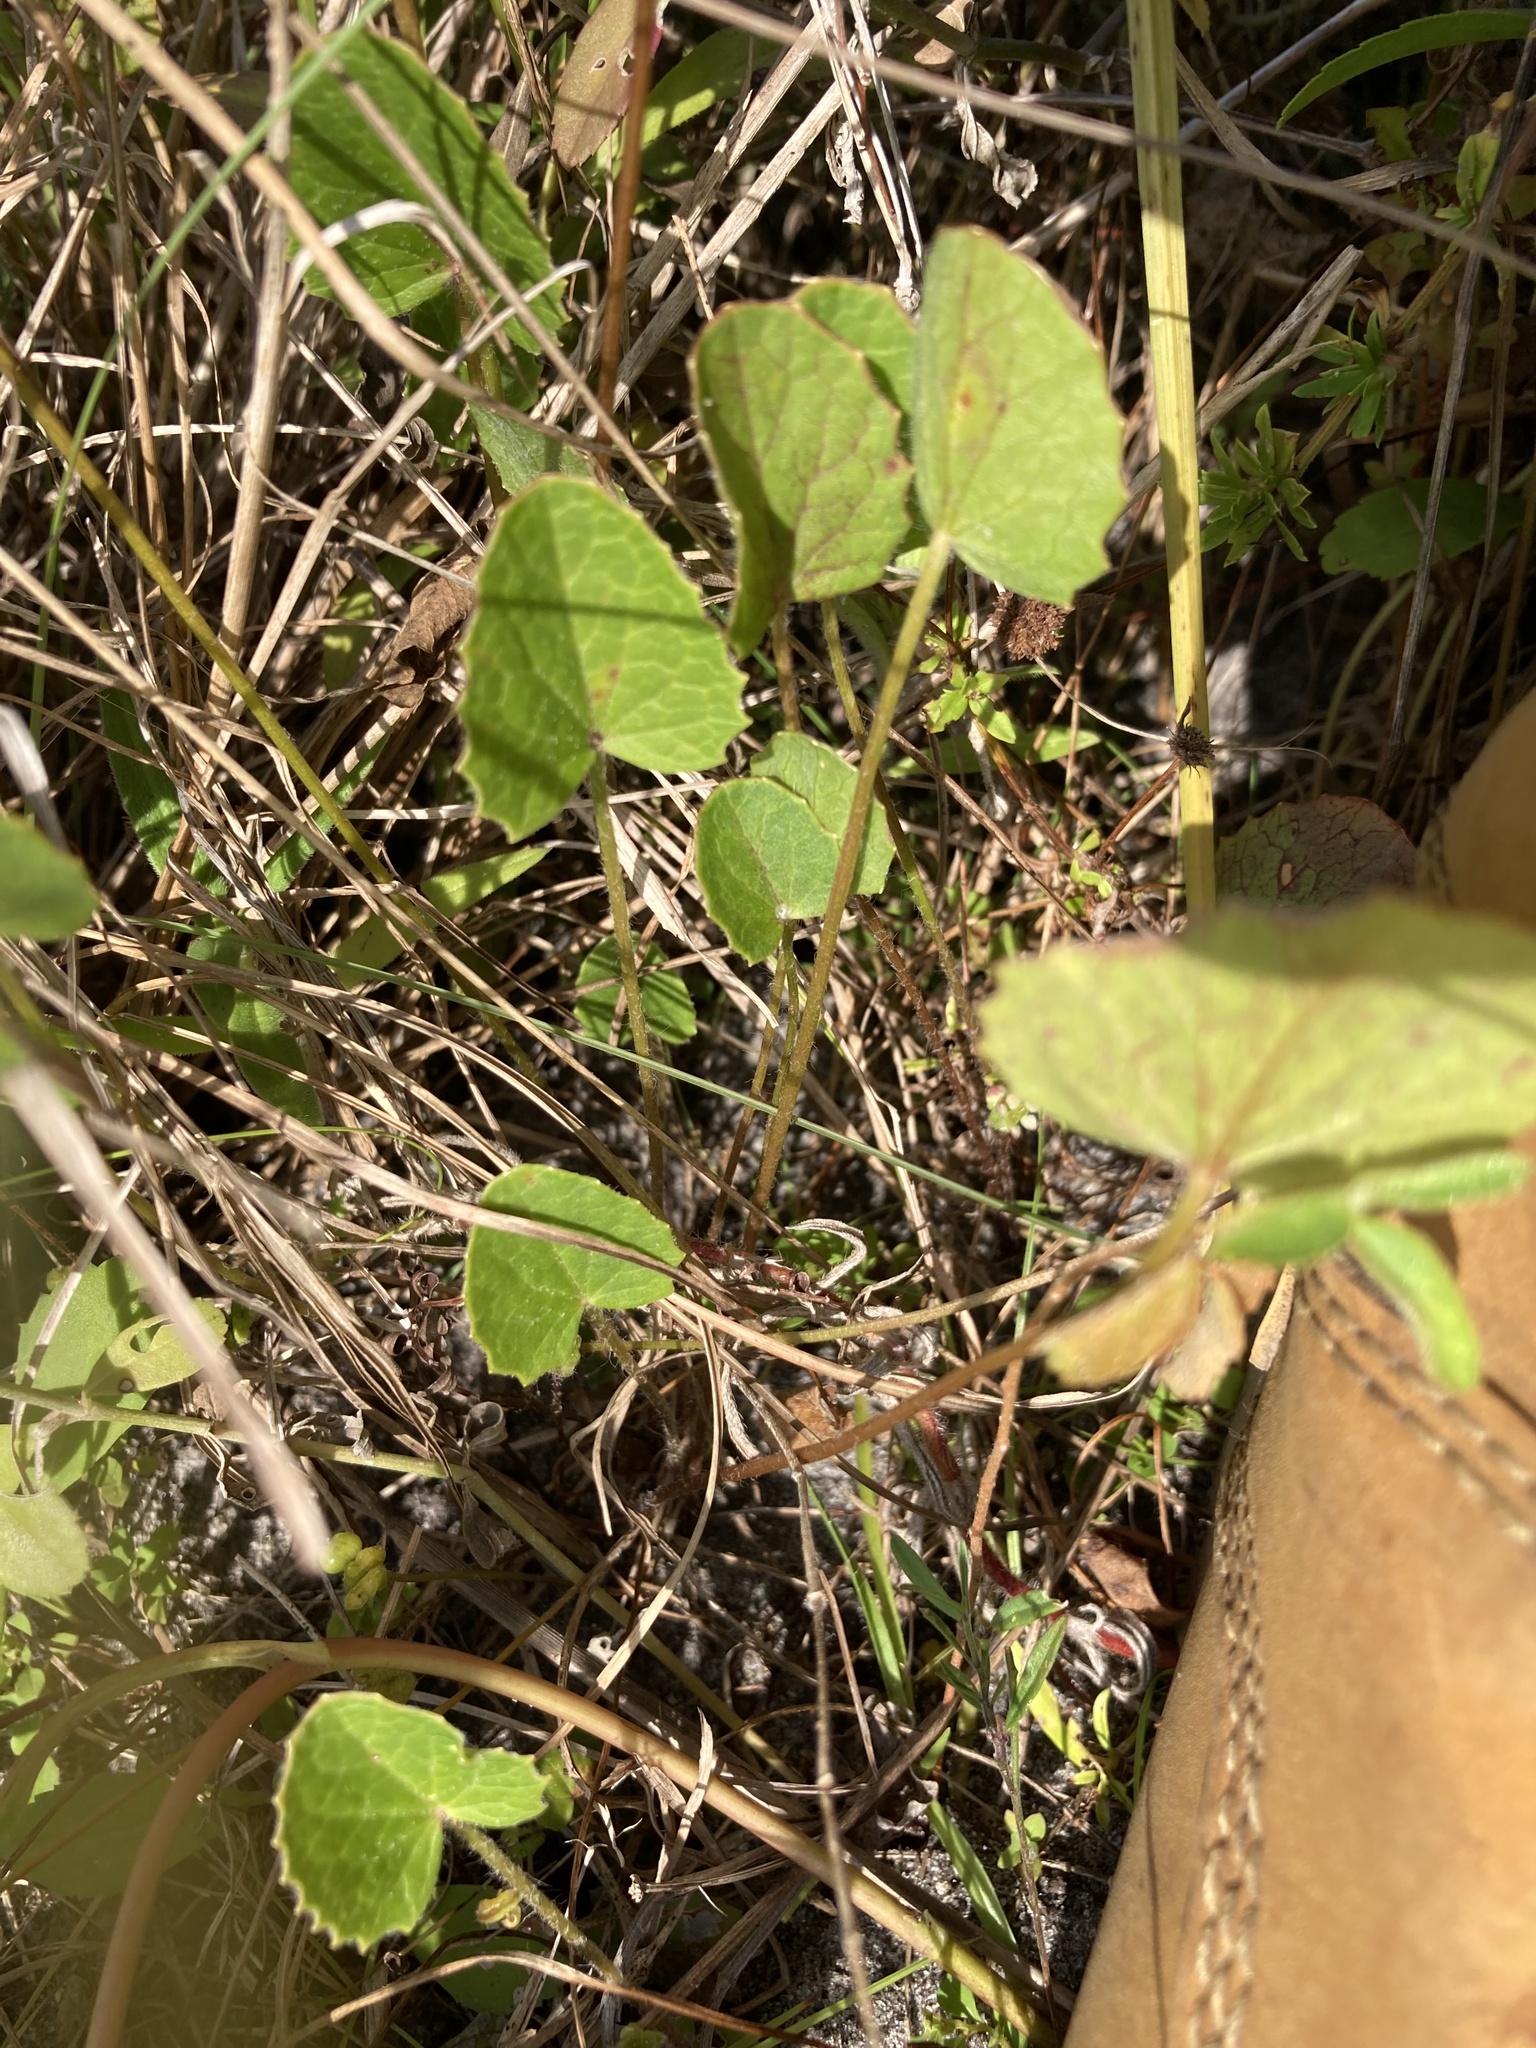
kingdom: Plantae
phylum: Tracheophyta
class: Magnoliopsida
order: Apiales
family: Apiaceae
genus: Centella
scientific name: Centella erecta
